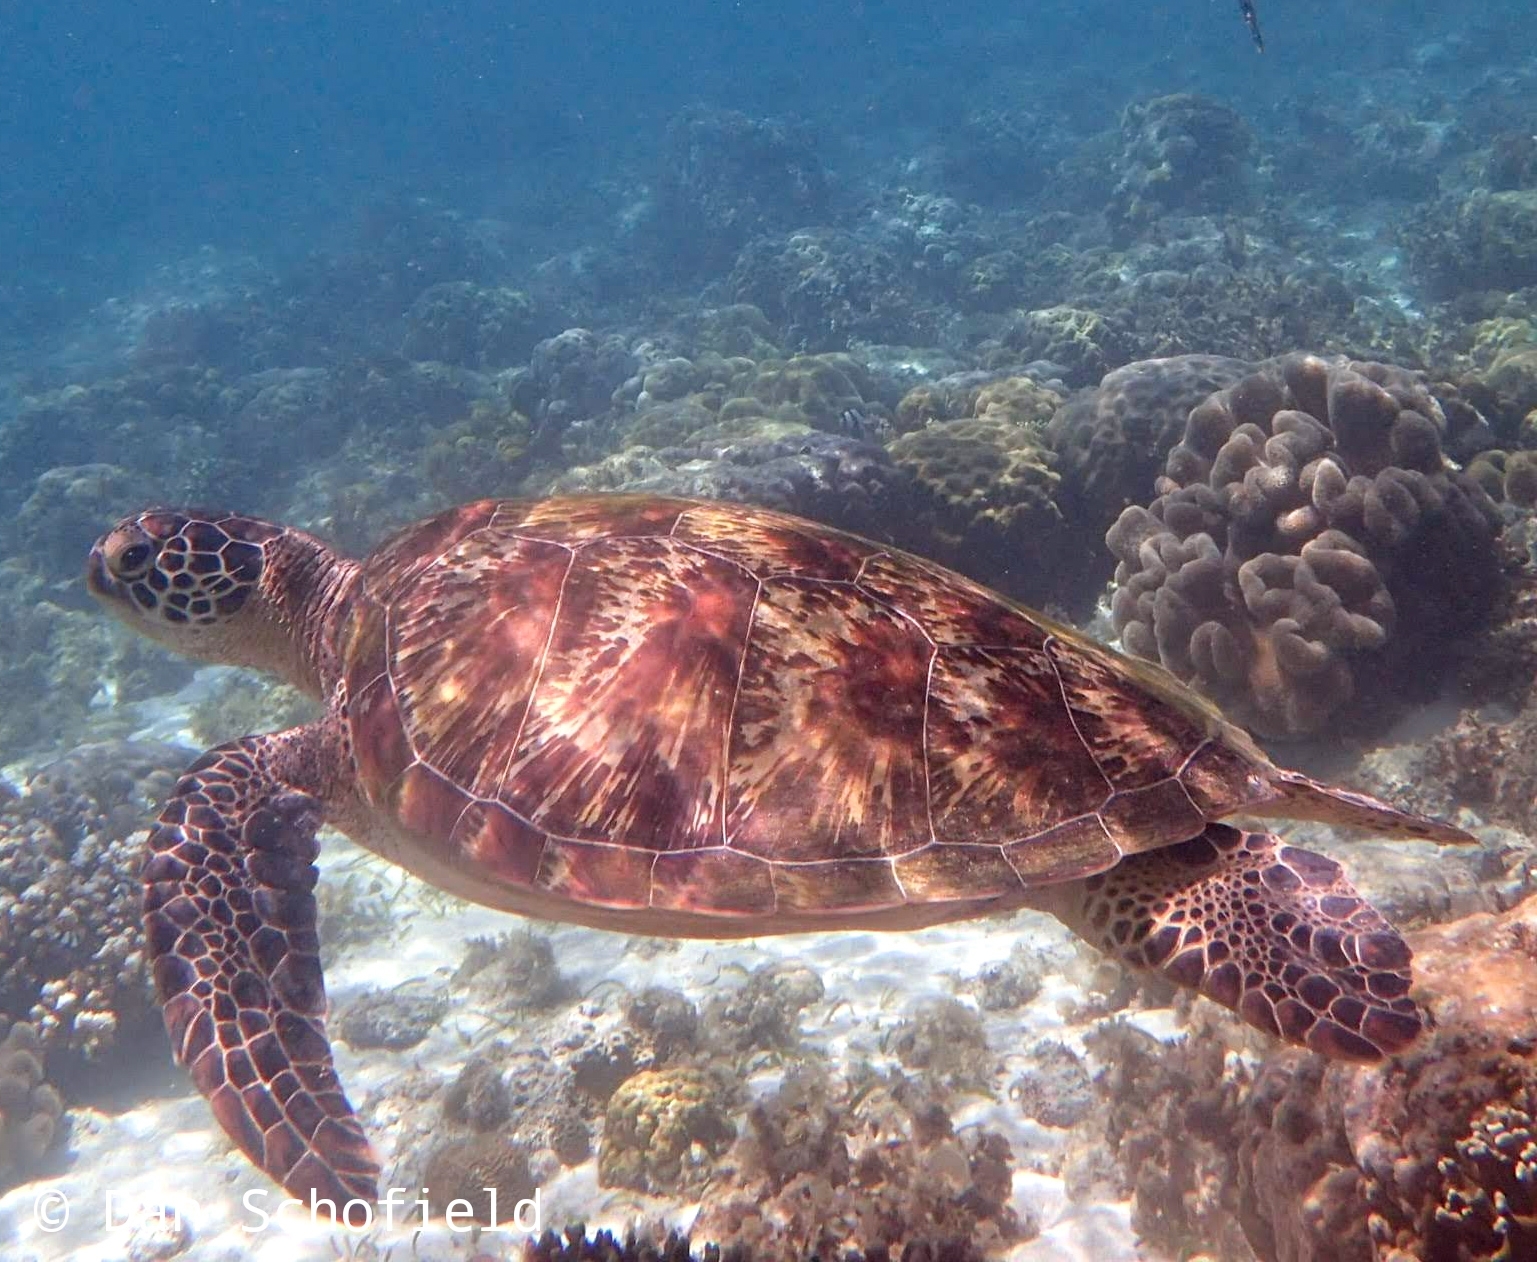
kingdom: Animalia
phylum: Chordata
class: Testudines
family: Cheloniidae
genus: Chelonia
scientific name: Chelonia mydas
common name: Green turtle
